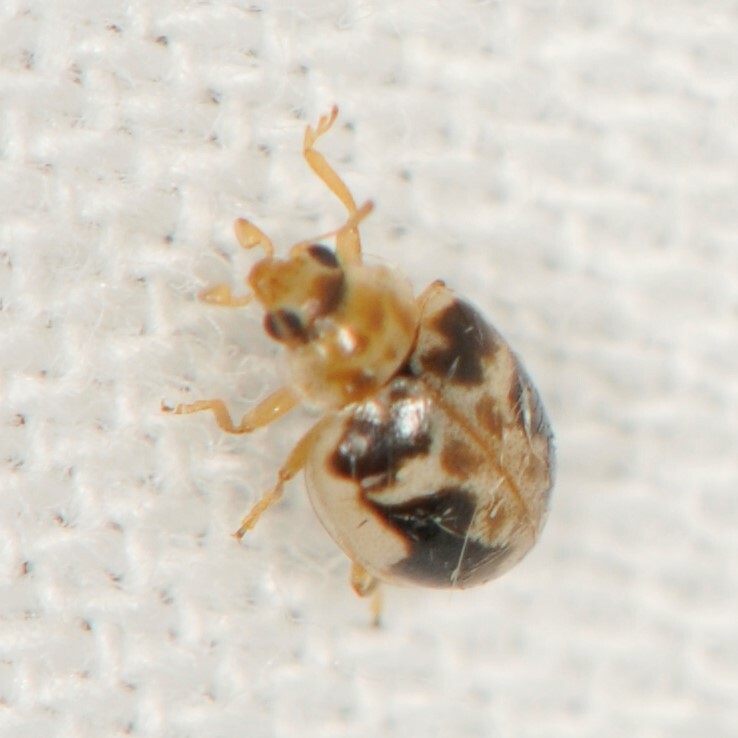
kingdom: Animalia
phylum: Arthropoda
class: Insecta
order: Coleoptera
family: Coccinellidae
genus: Psyllobora
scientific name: Psyllobora renifer
